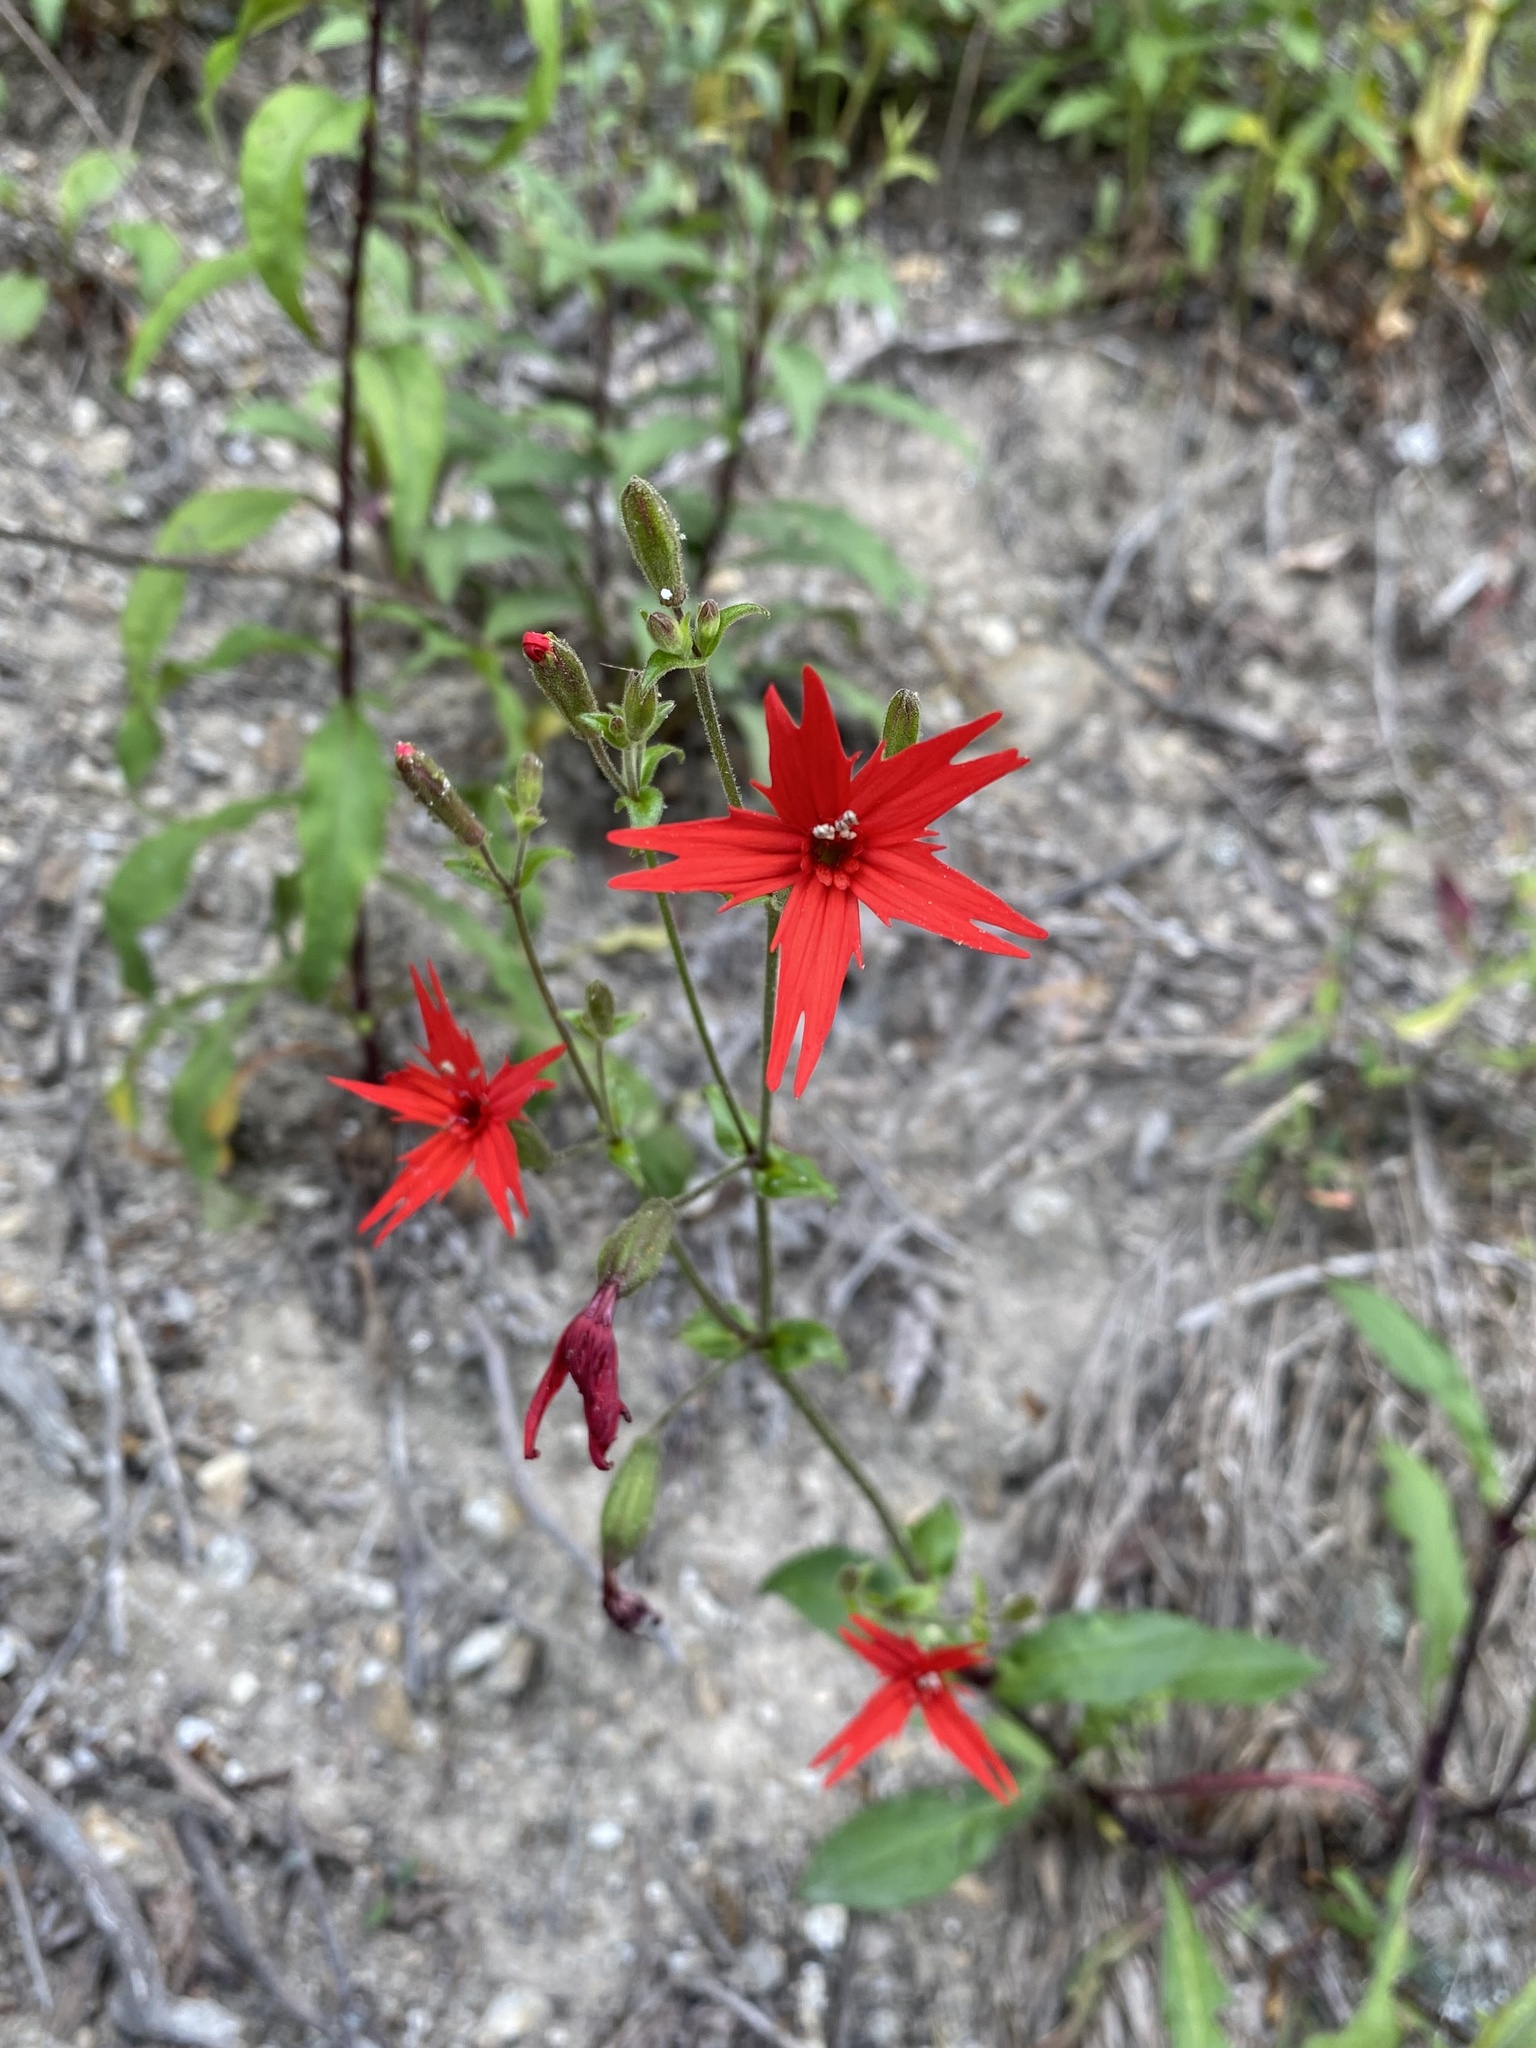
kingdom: Plantae
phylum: Tracheophyta
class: Magnoliopsida
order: Caryophyllales
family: Caryophyllaceae
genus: Silene
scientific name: Silene virginica
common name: Fire-pink
